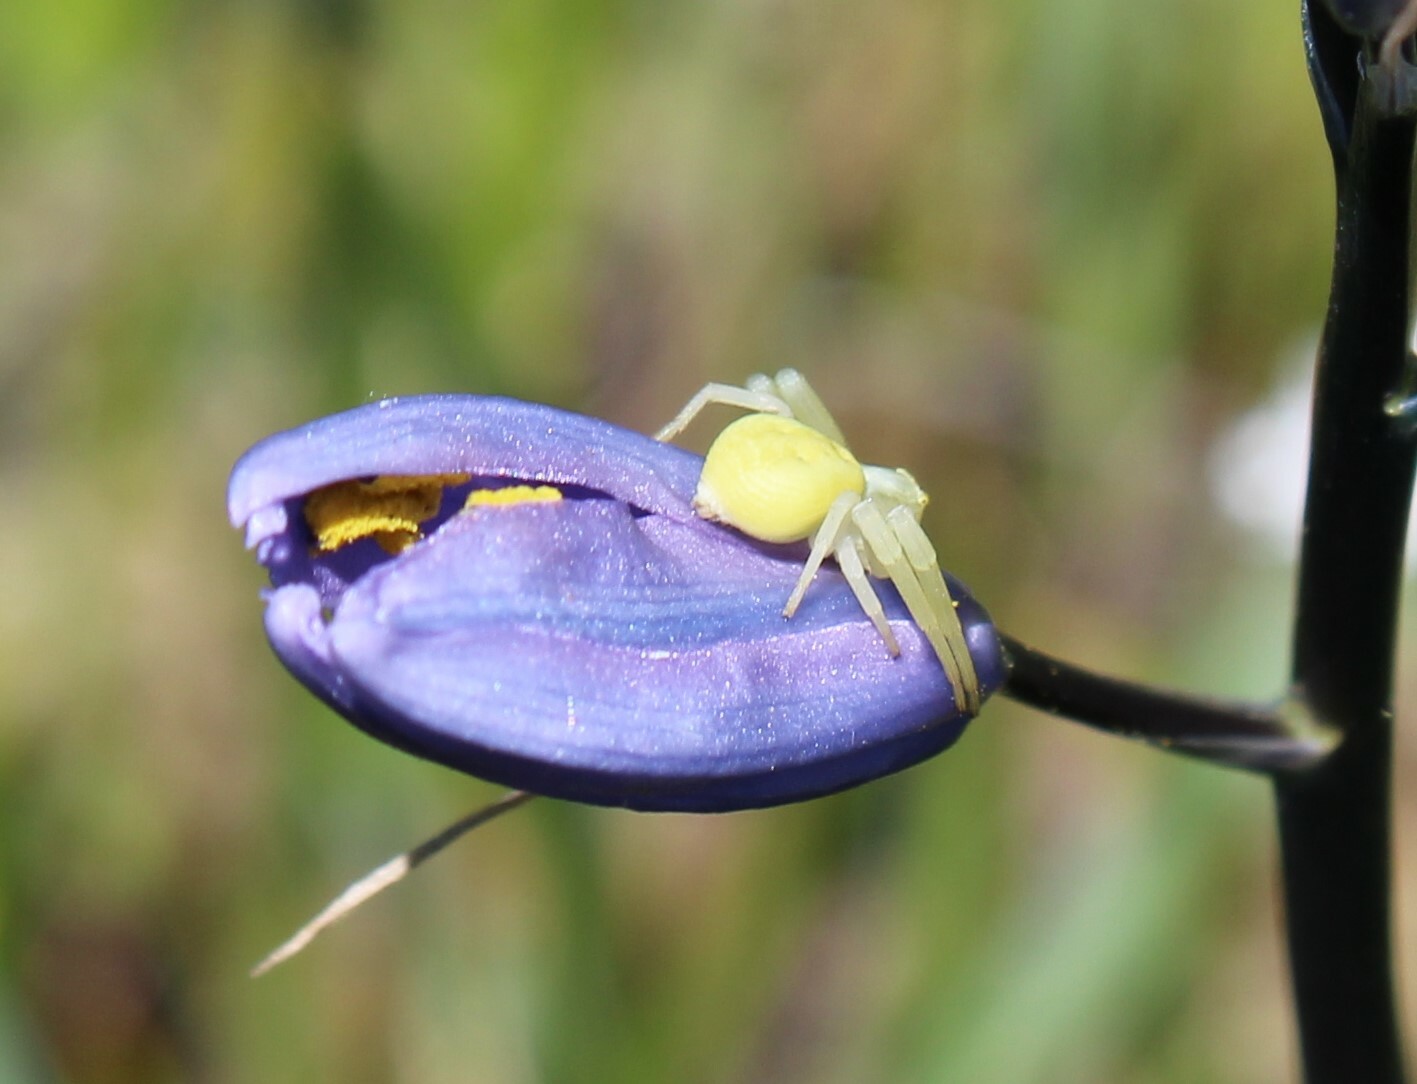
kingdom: Animalia
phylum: Arthropoda
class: Arachnida
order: Araneae
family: Thomisidae
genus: Misumena
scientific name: Misumena vatia
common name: Goldenrod crab spider
